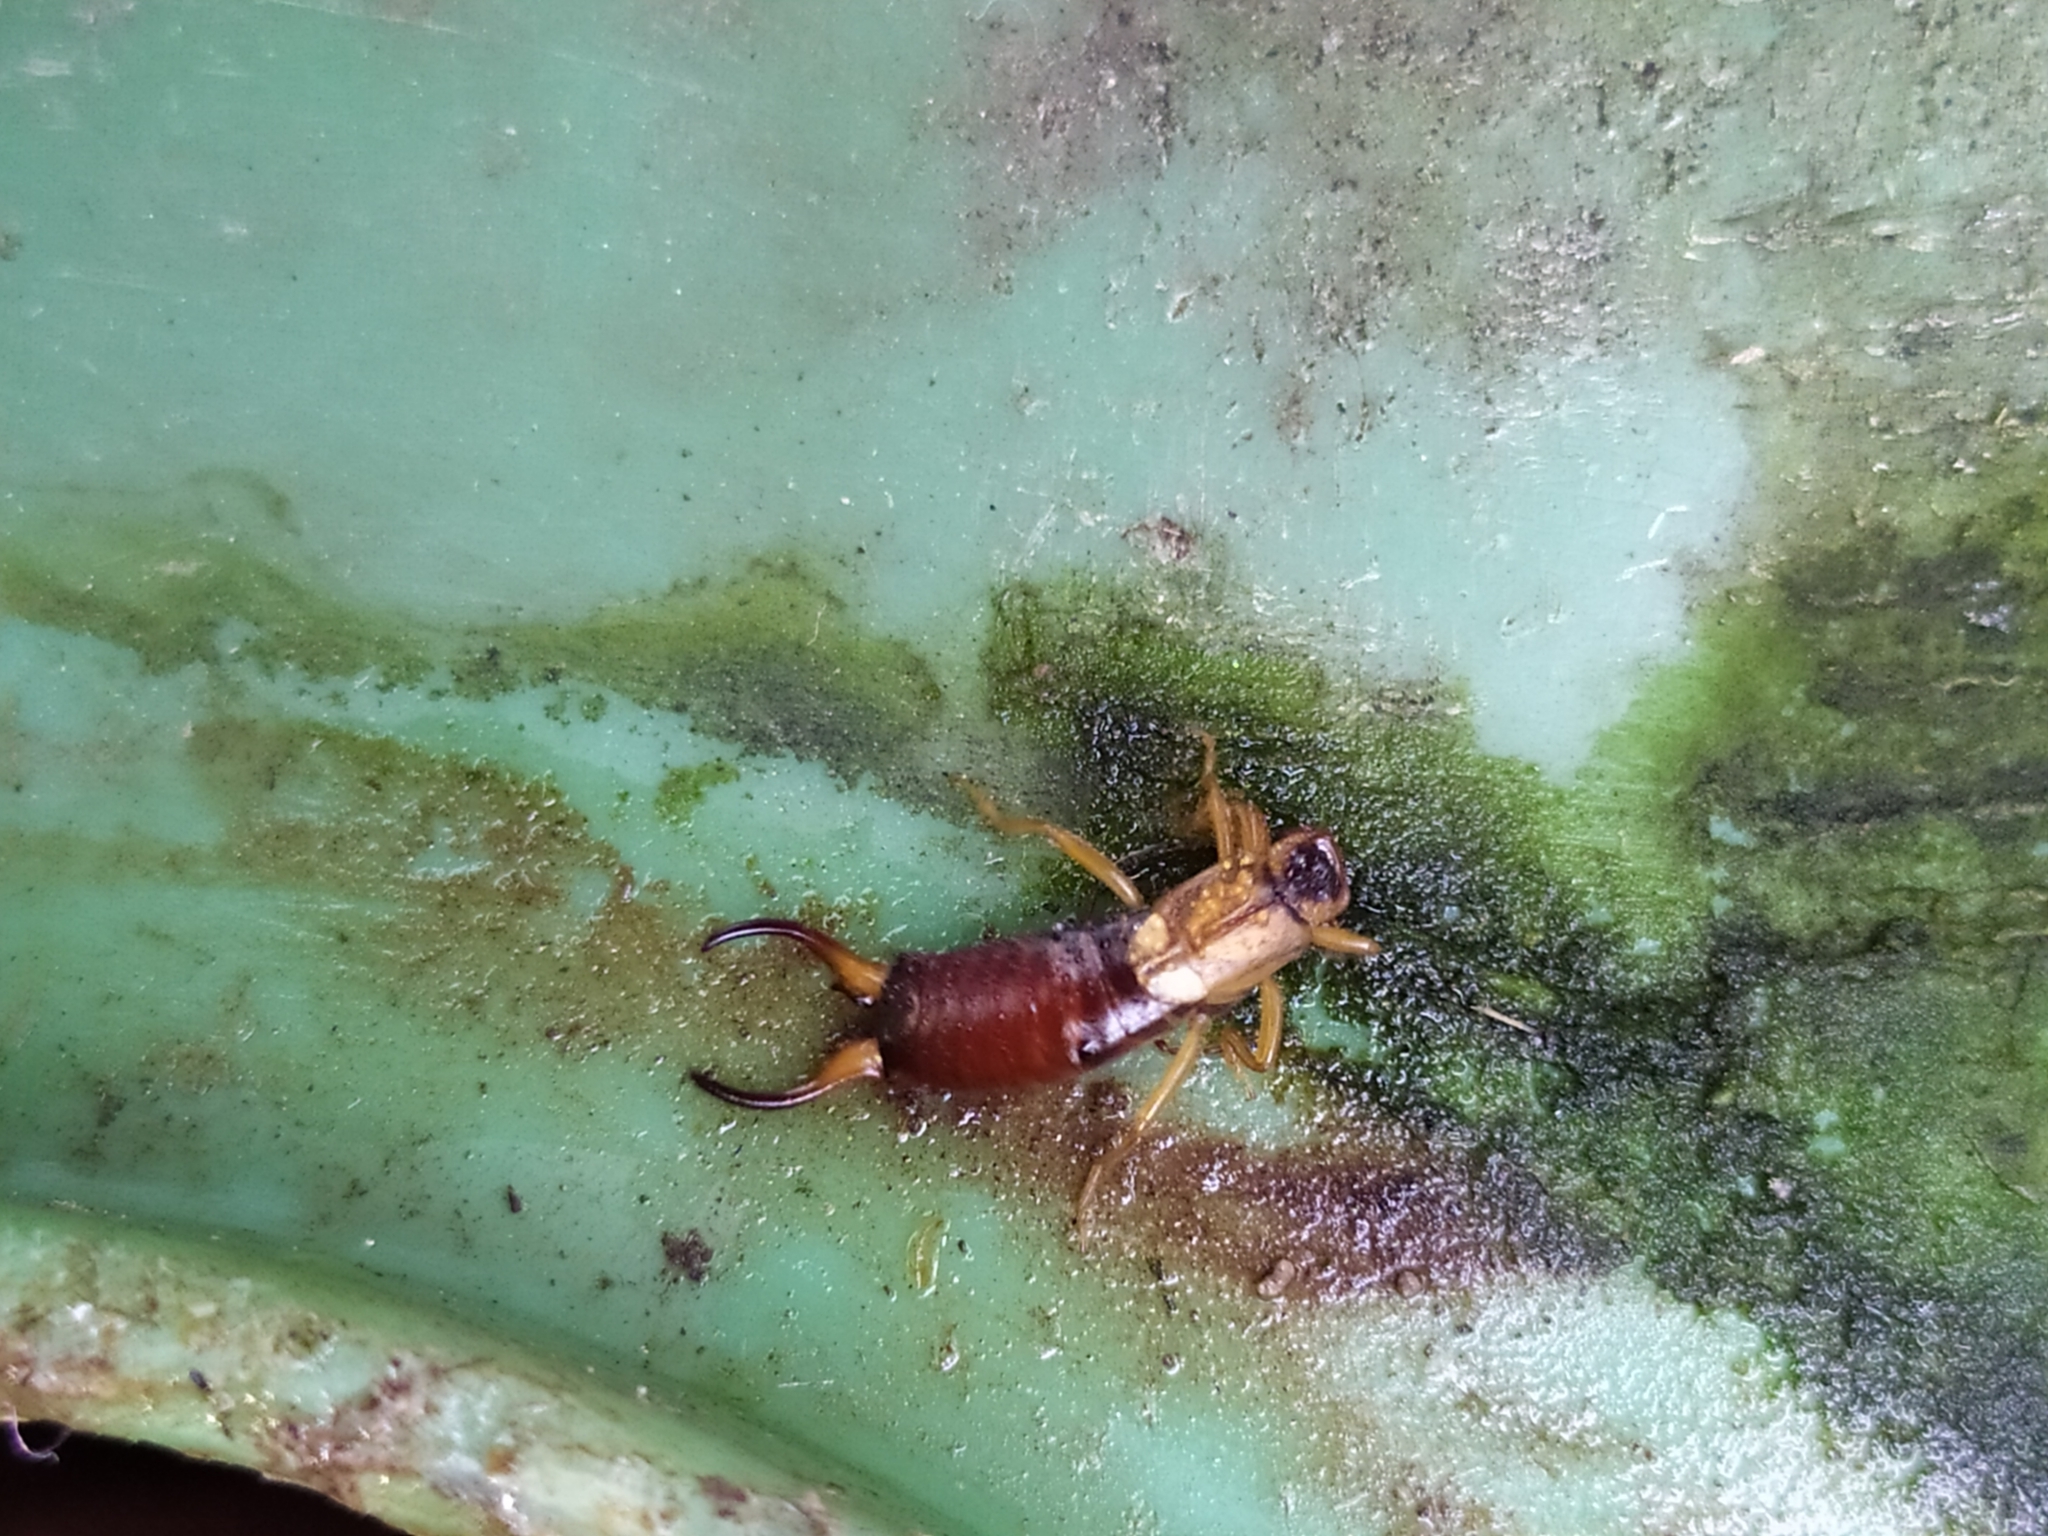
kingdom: Animalia
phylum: Arthropoda
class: Insecta
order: Dermaptera
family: Forficulidae
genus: Forficula
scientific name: Forficula
